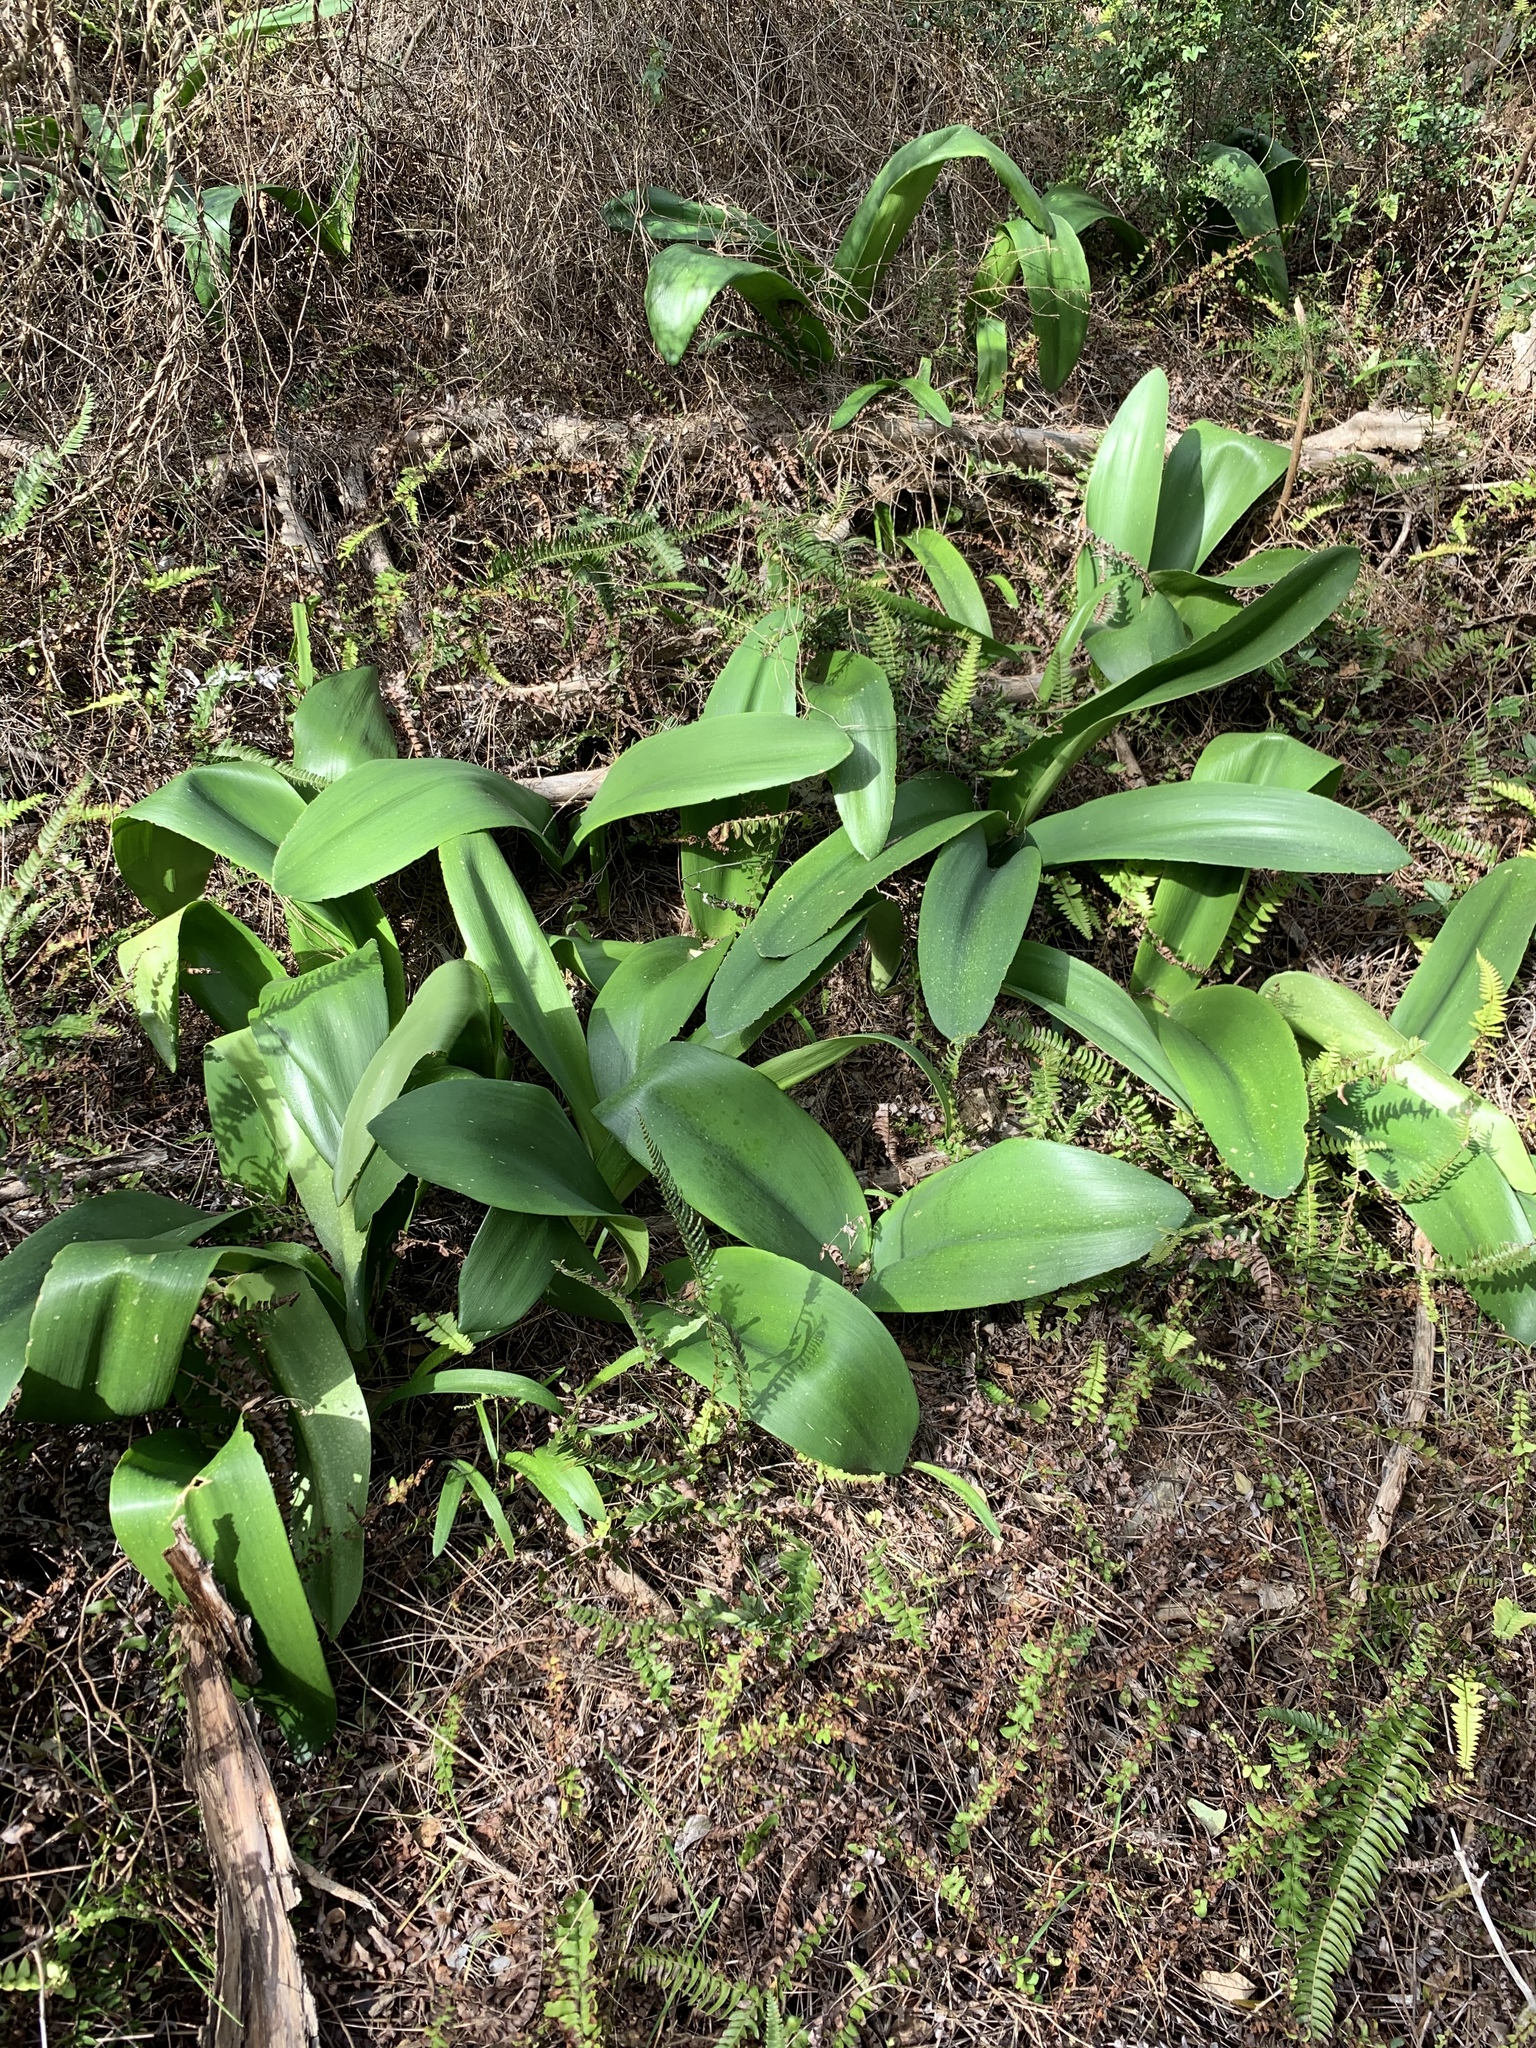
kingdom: Plantae
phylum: Tracheophyta
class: Liliopsida
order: Asparagales
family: Amaryllidaceae
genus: Haemanthus
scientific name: Haemanthus coccineus
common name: Cape-tulip
